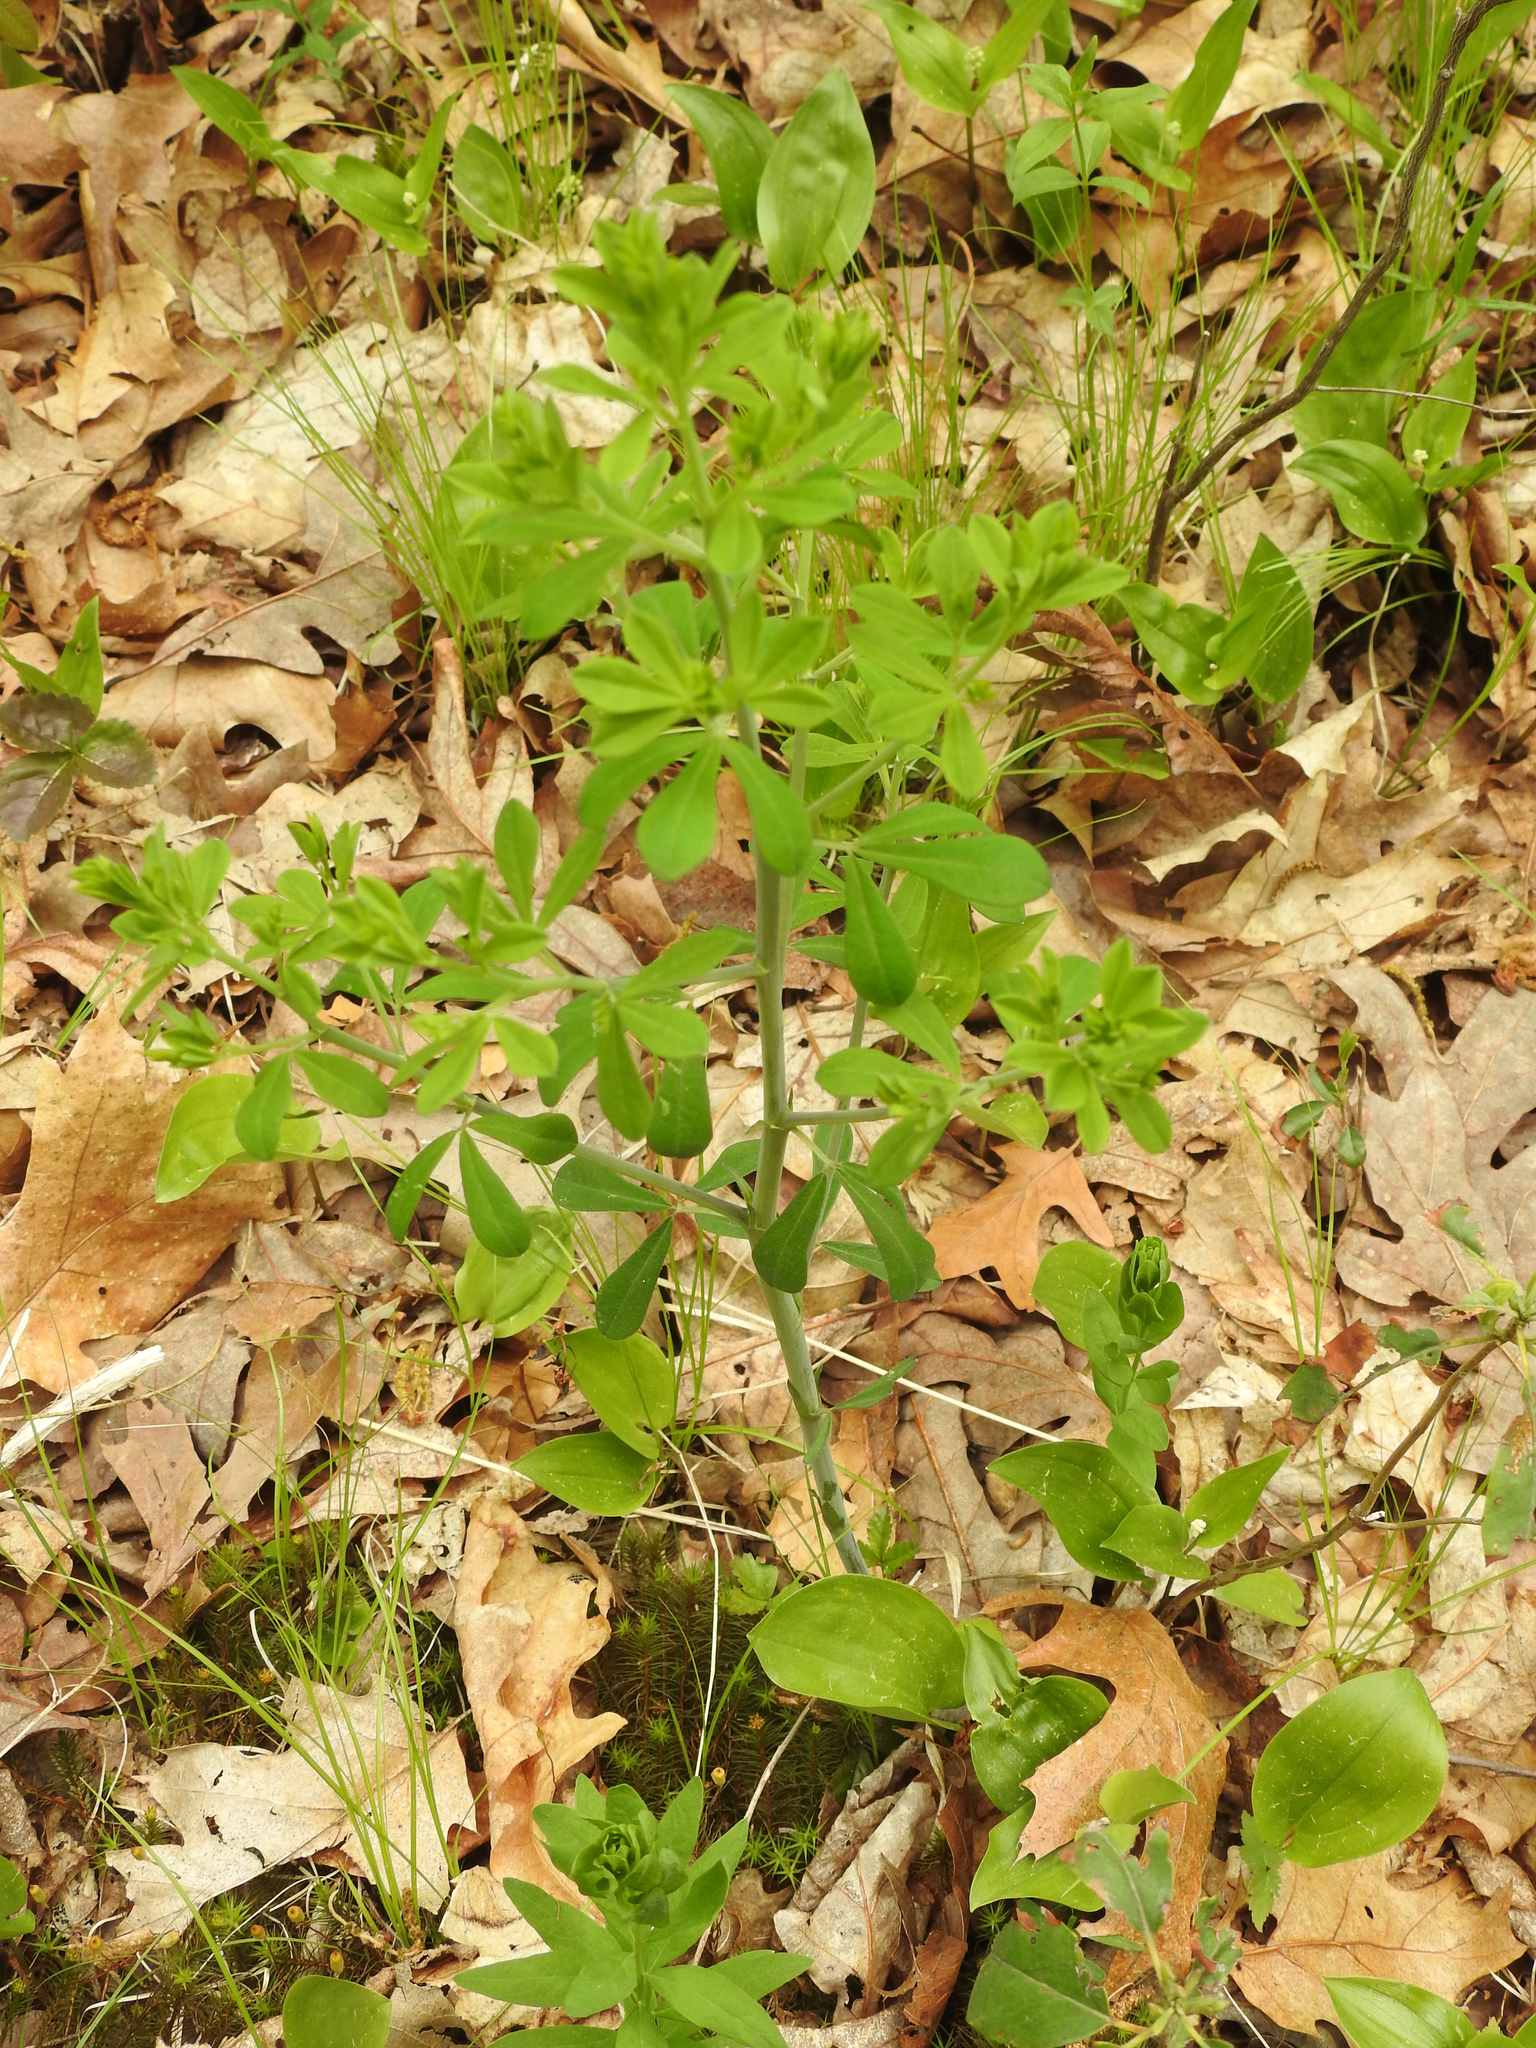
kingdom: Plantae
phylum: Tracheophyta
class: Magnoliopsida
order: Fabales
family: Fabaceae
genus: Baptisia
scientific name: Baptisia tinctoria
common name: Wild indigo
